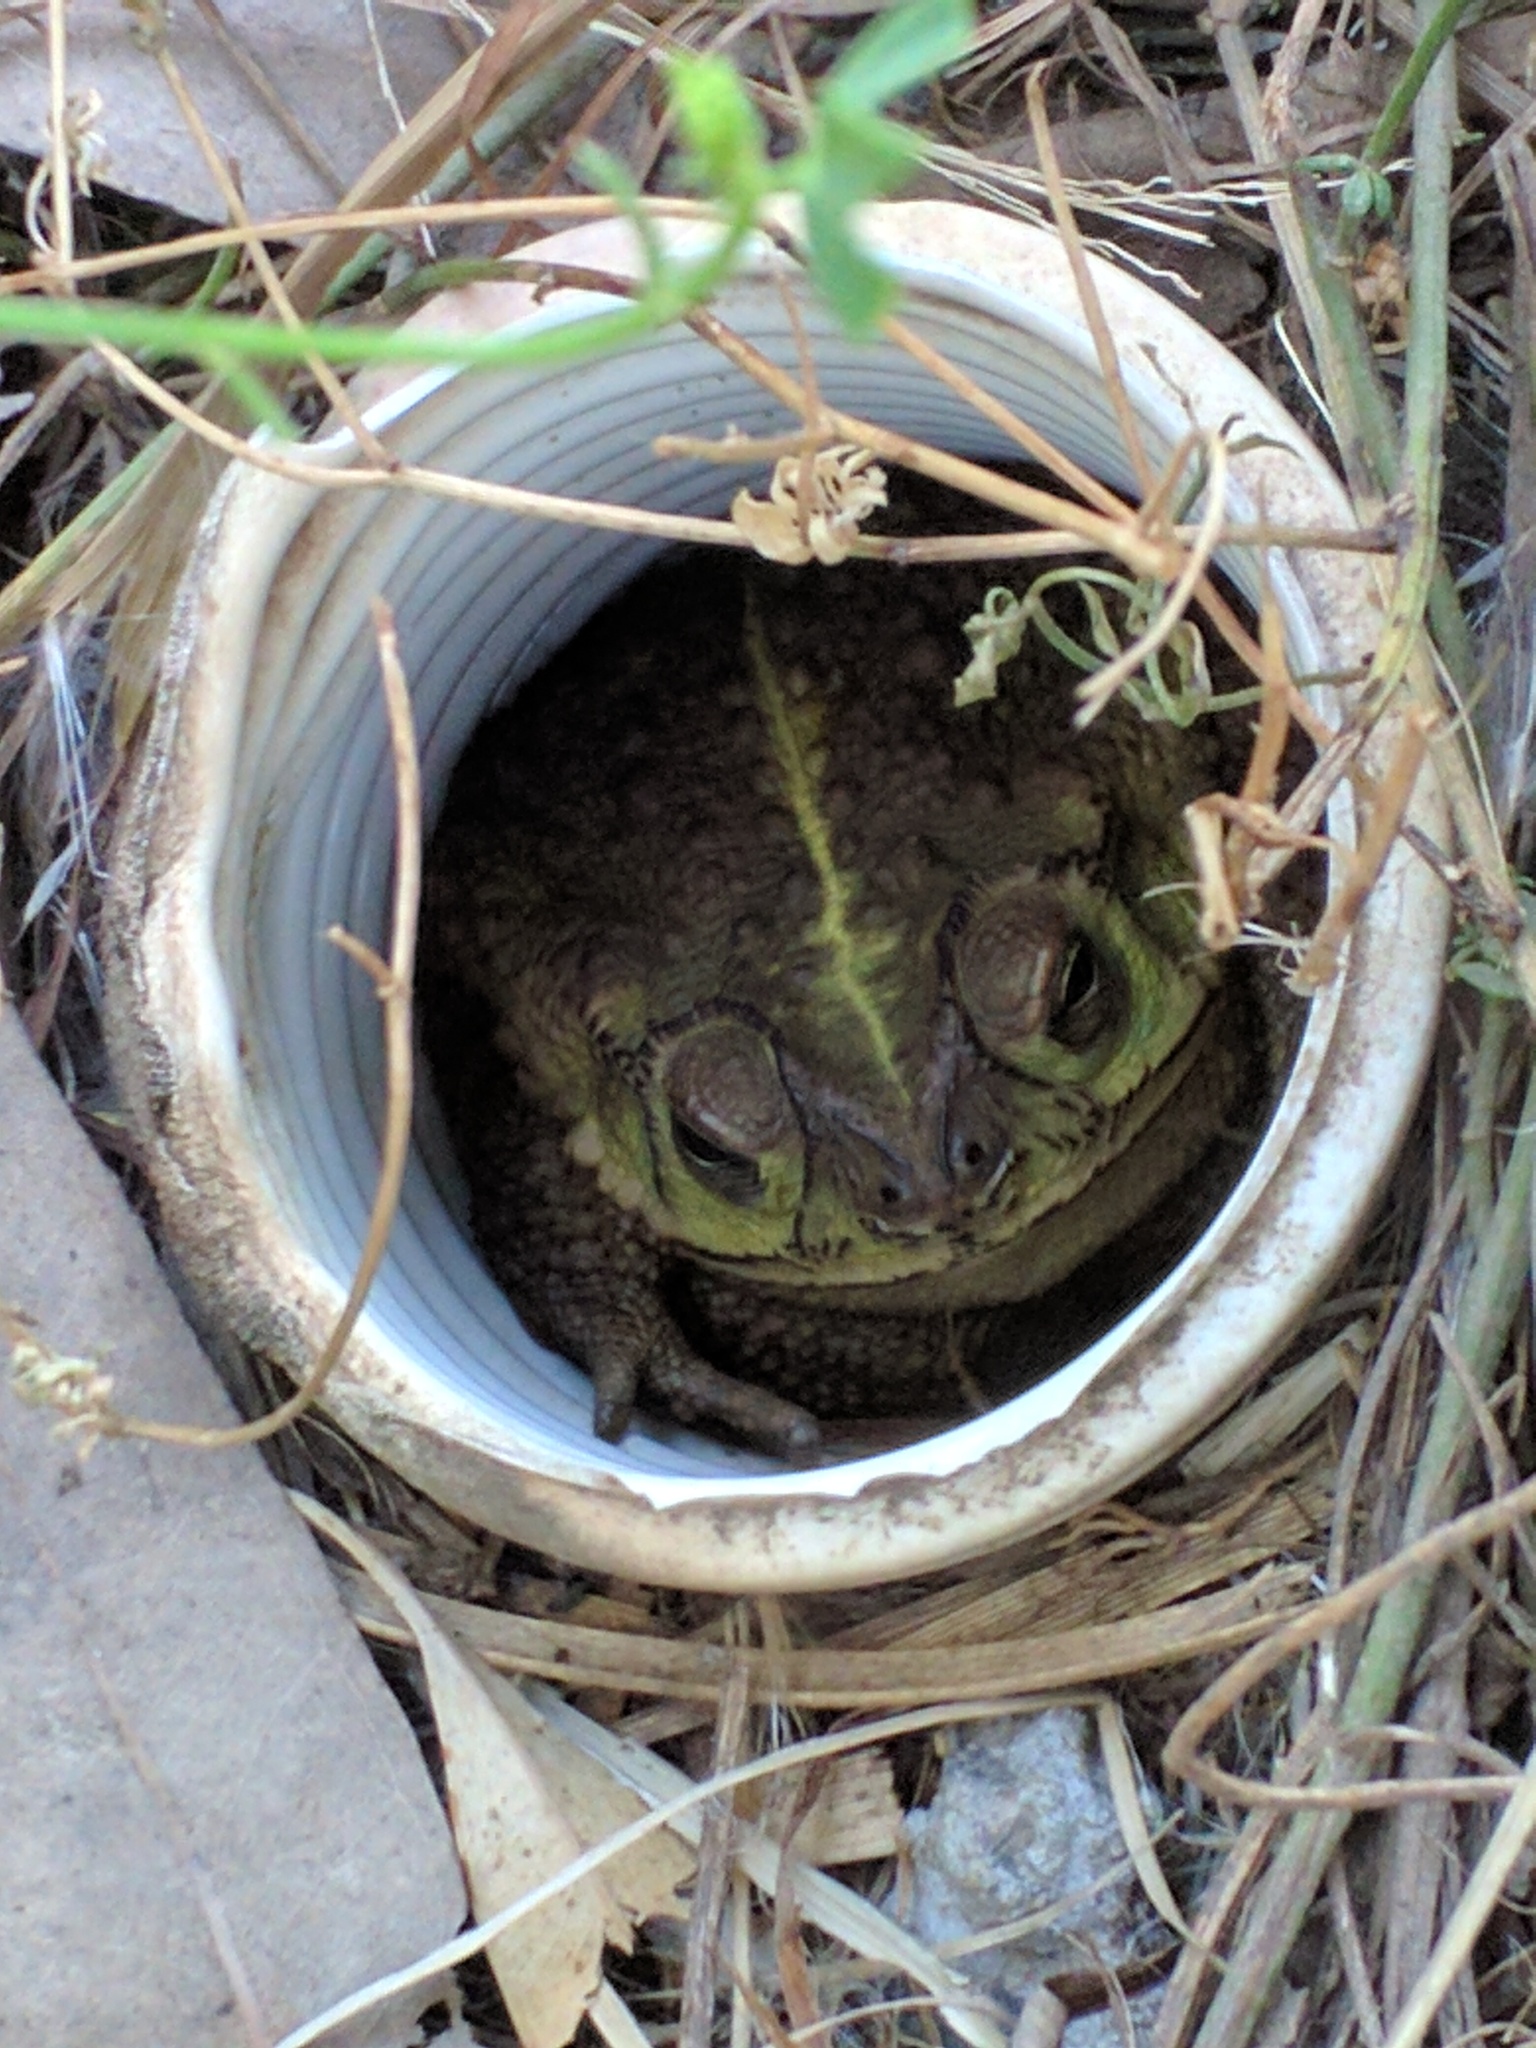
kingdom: Animalia
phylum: Chordata
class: Amphibia
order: Anura
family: Bufonidae
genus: Rhinella
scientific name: Rhinella dorbignyi
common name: D´orbigny’s toad
